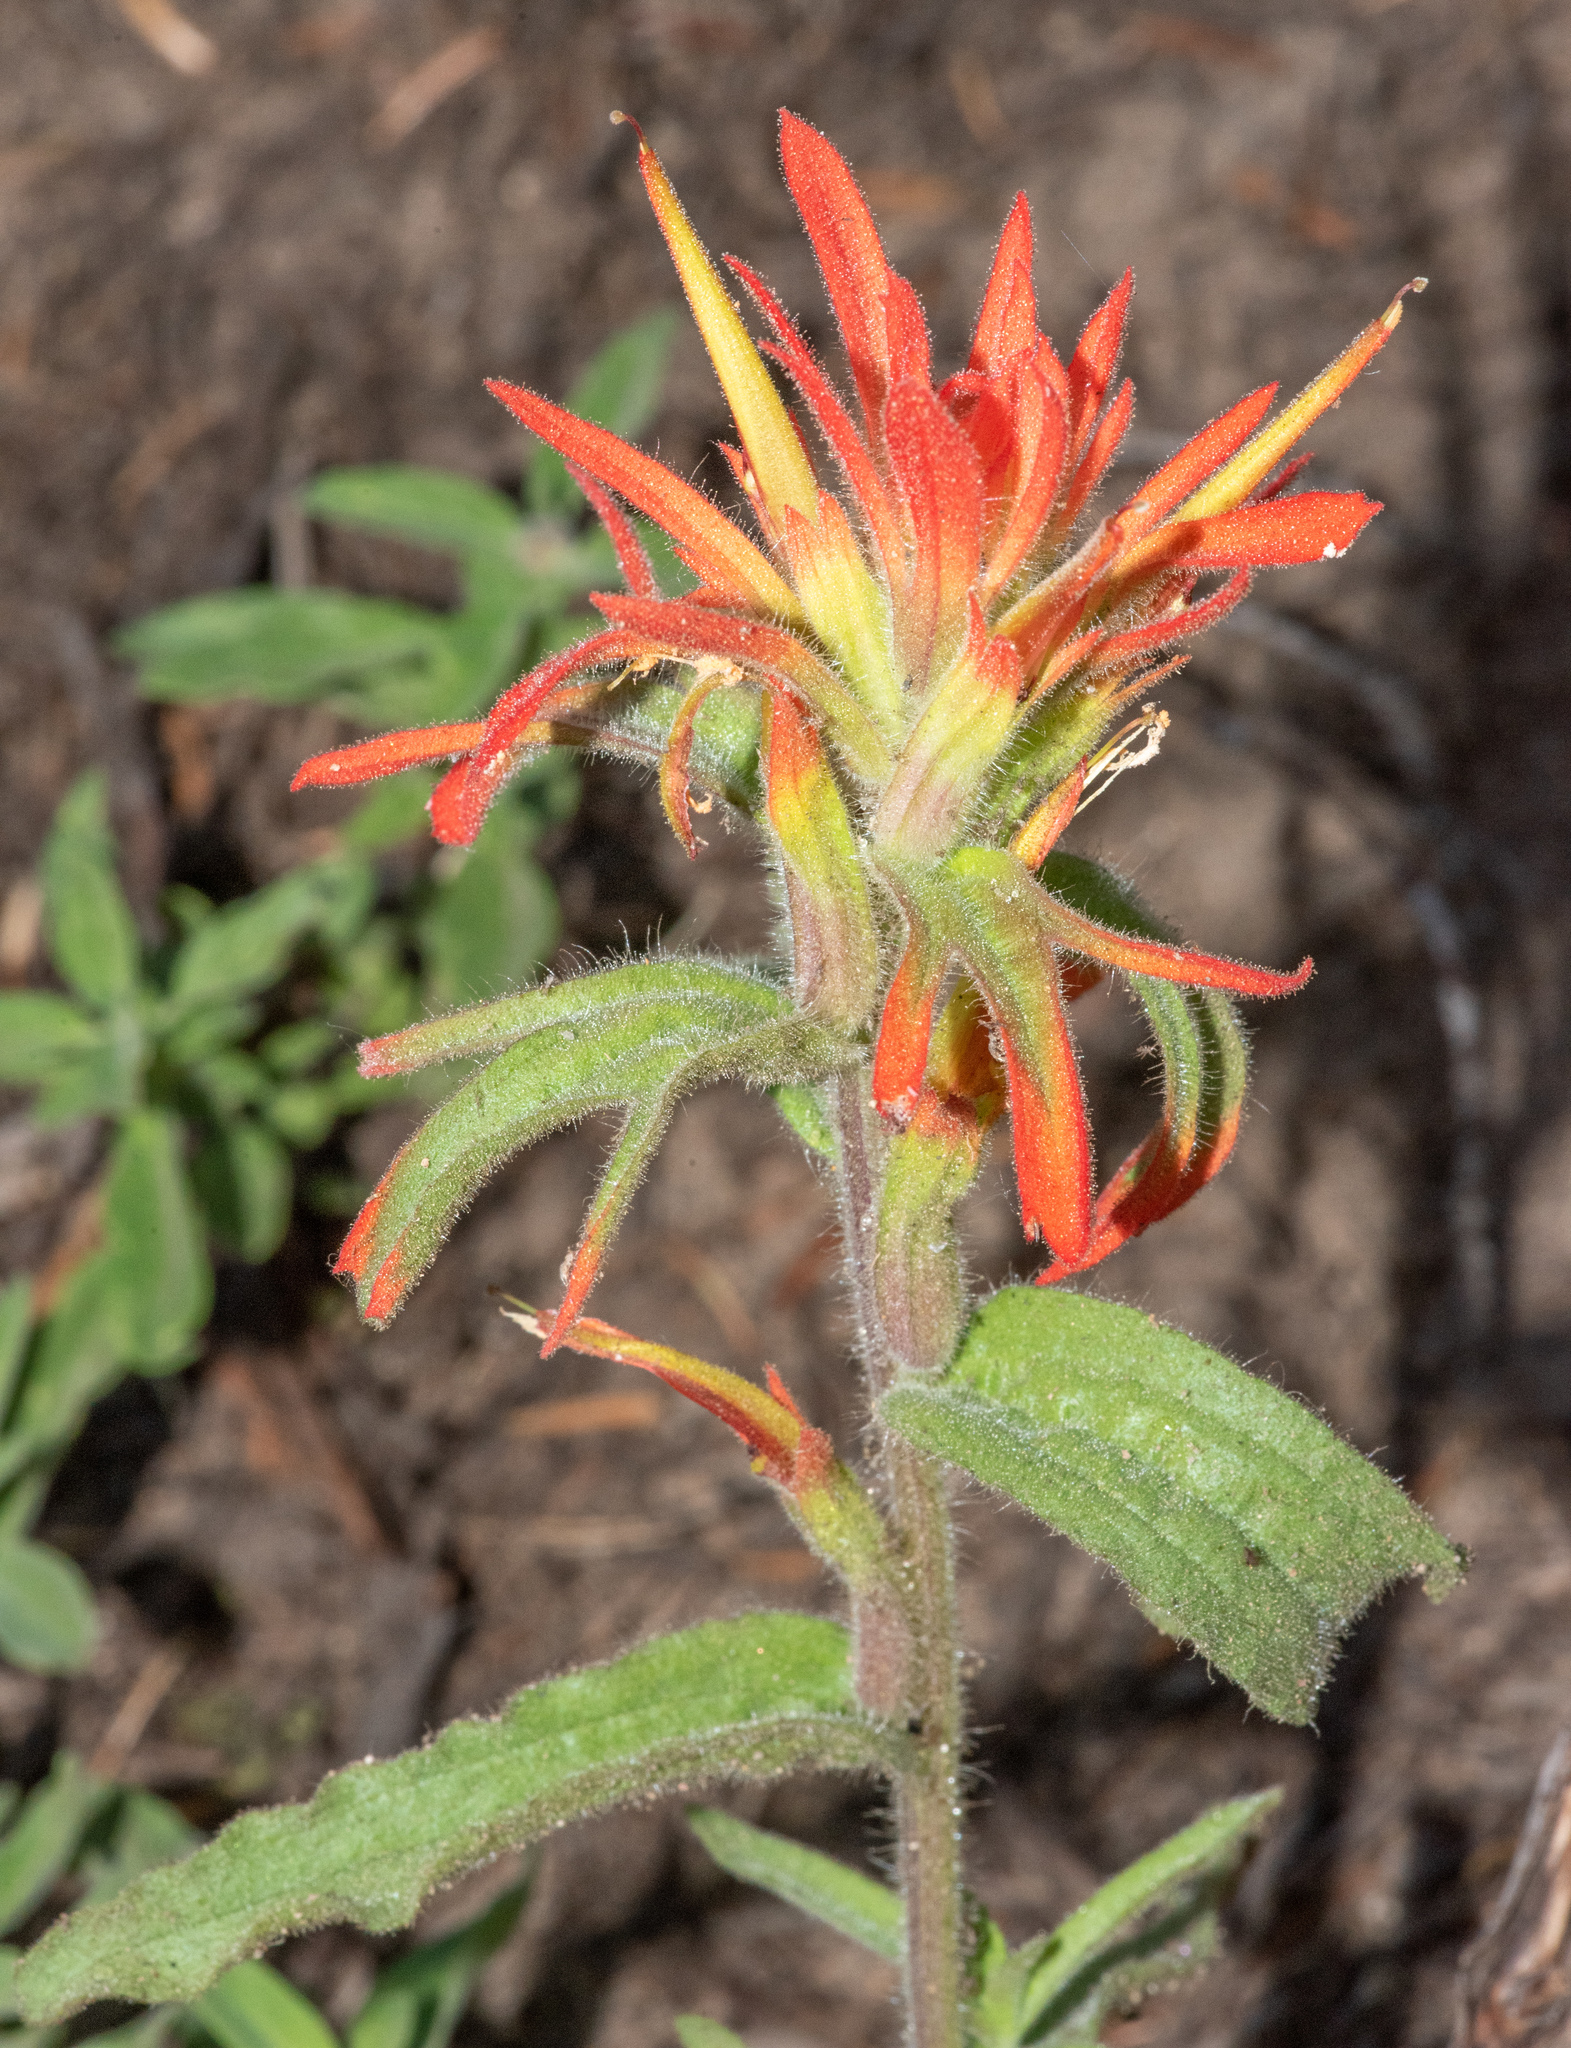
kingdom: Plantae
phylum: Tracheophyta
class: Magnoliopsida
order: Lamiales
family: Orobanchaceae
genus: Castilleja
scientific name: Castilleja applegatei
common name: Wavy-leaf paintbrush
